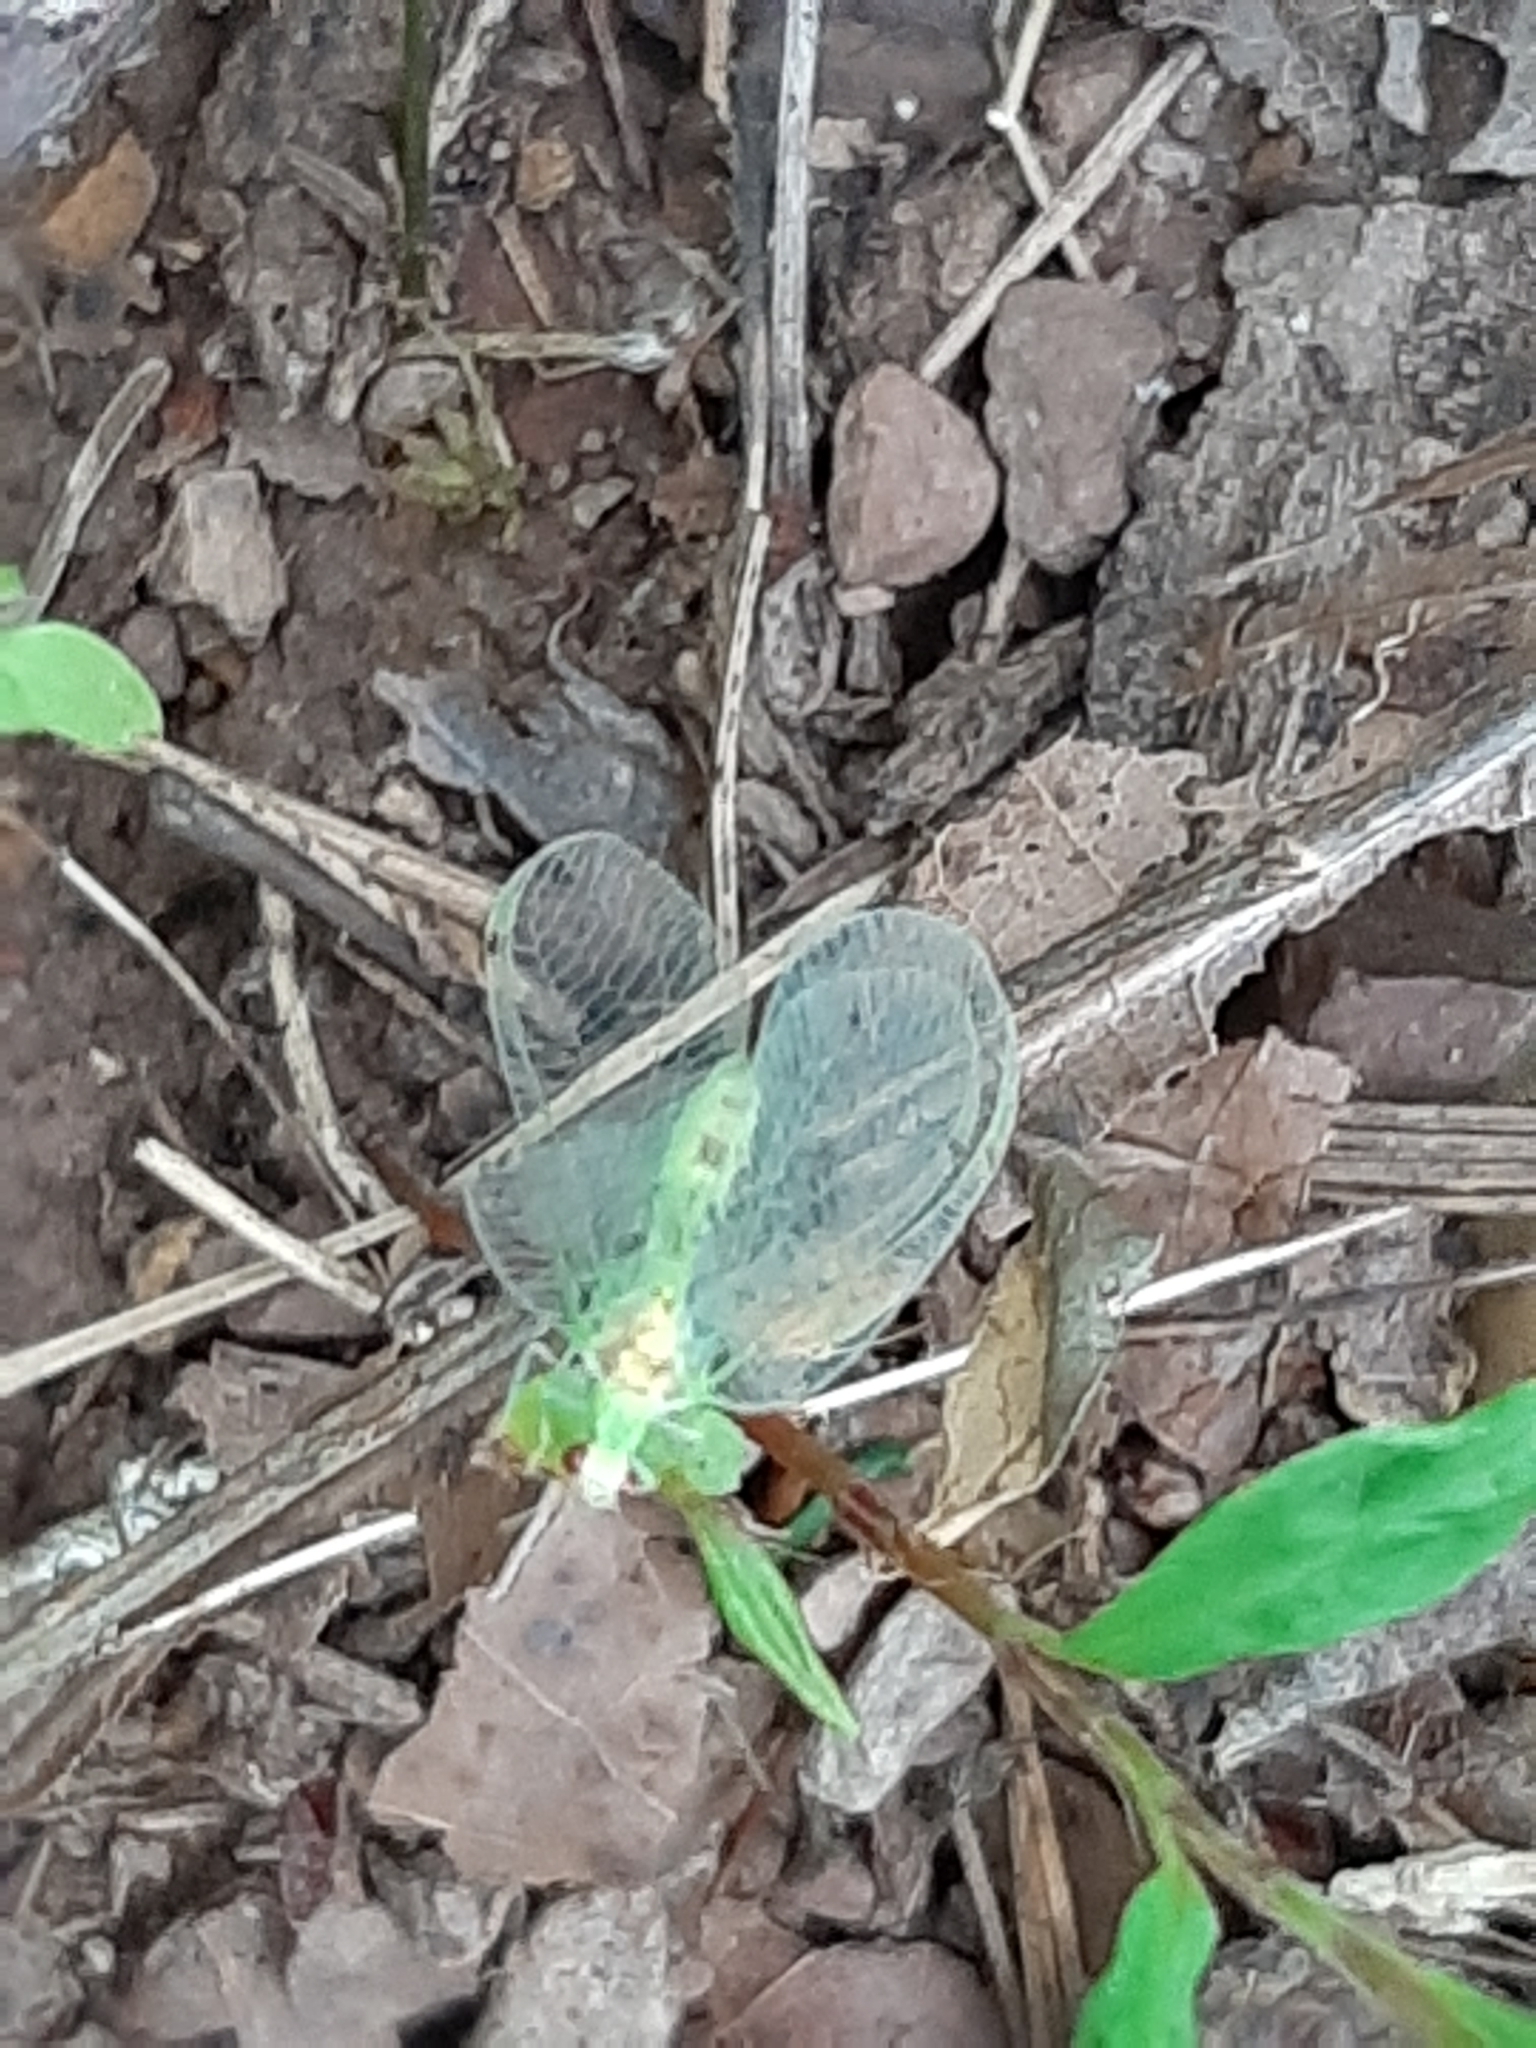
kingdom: Animalia
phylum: Arthropoda
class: Insecta
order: Neuroptera
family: Chrysopidae
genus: Leucochrysa
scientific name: Leucochrysa insularis
